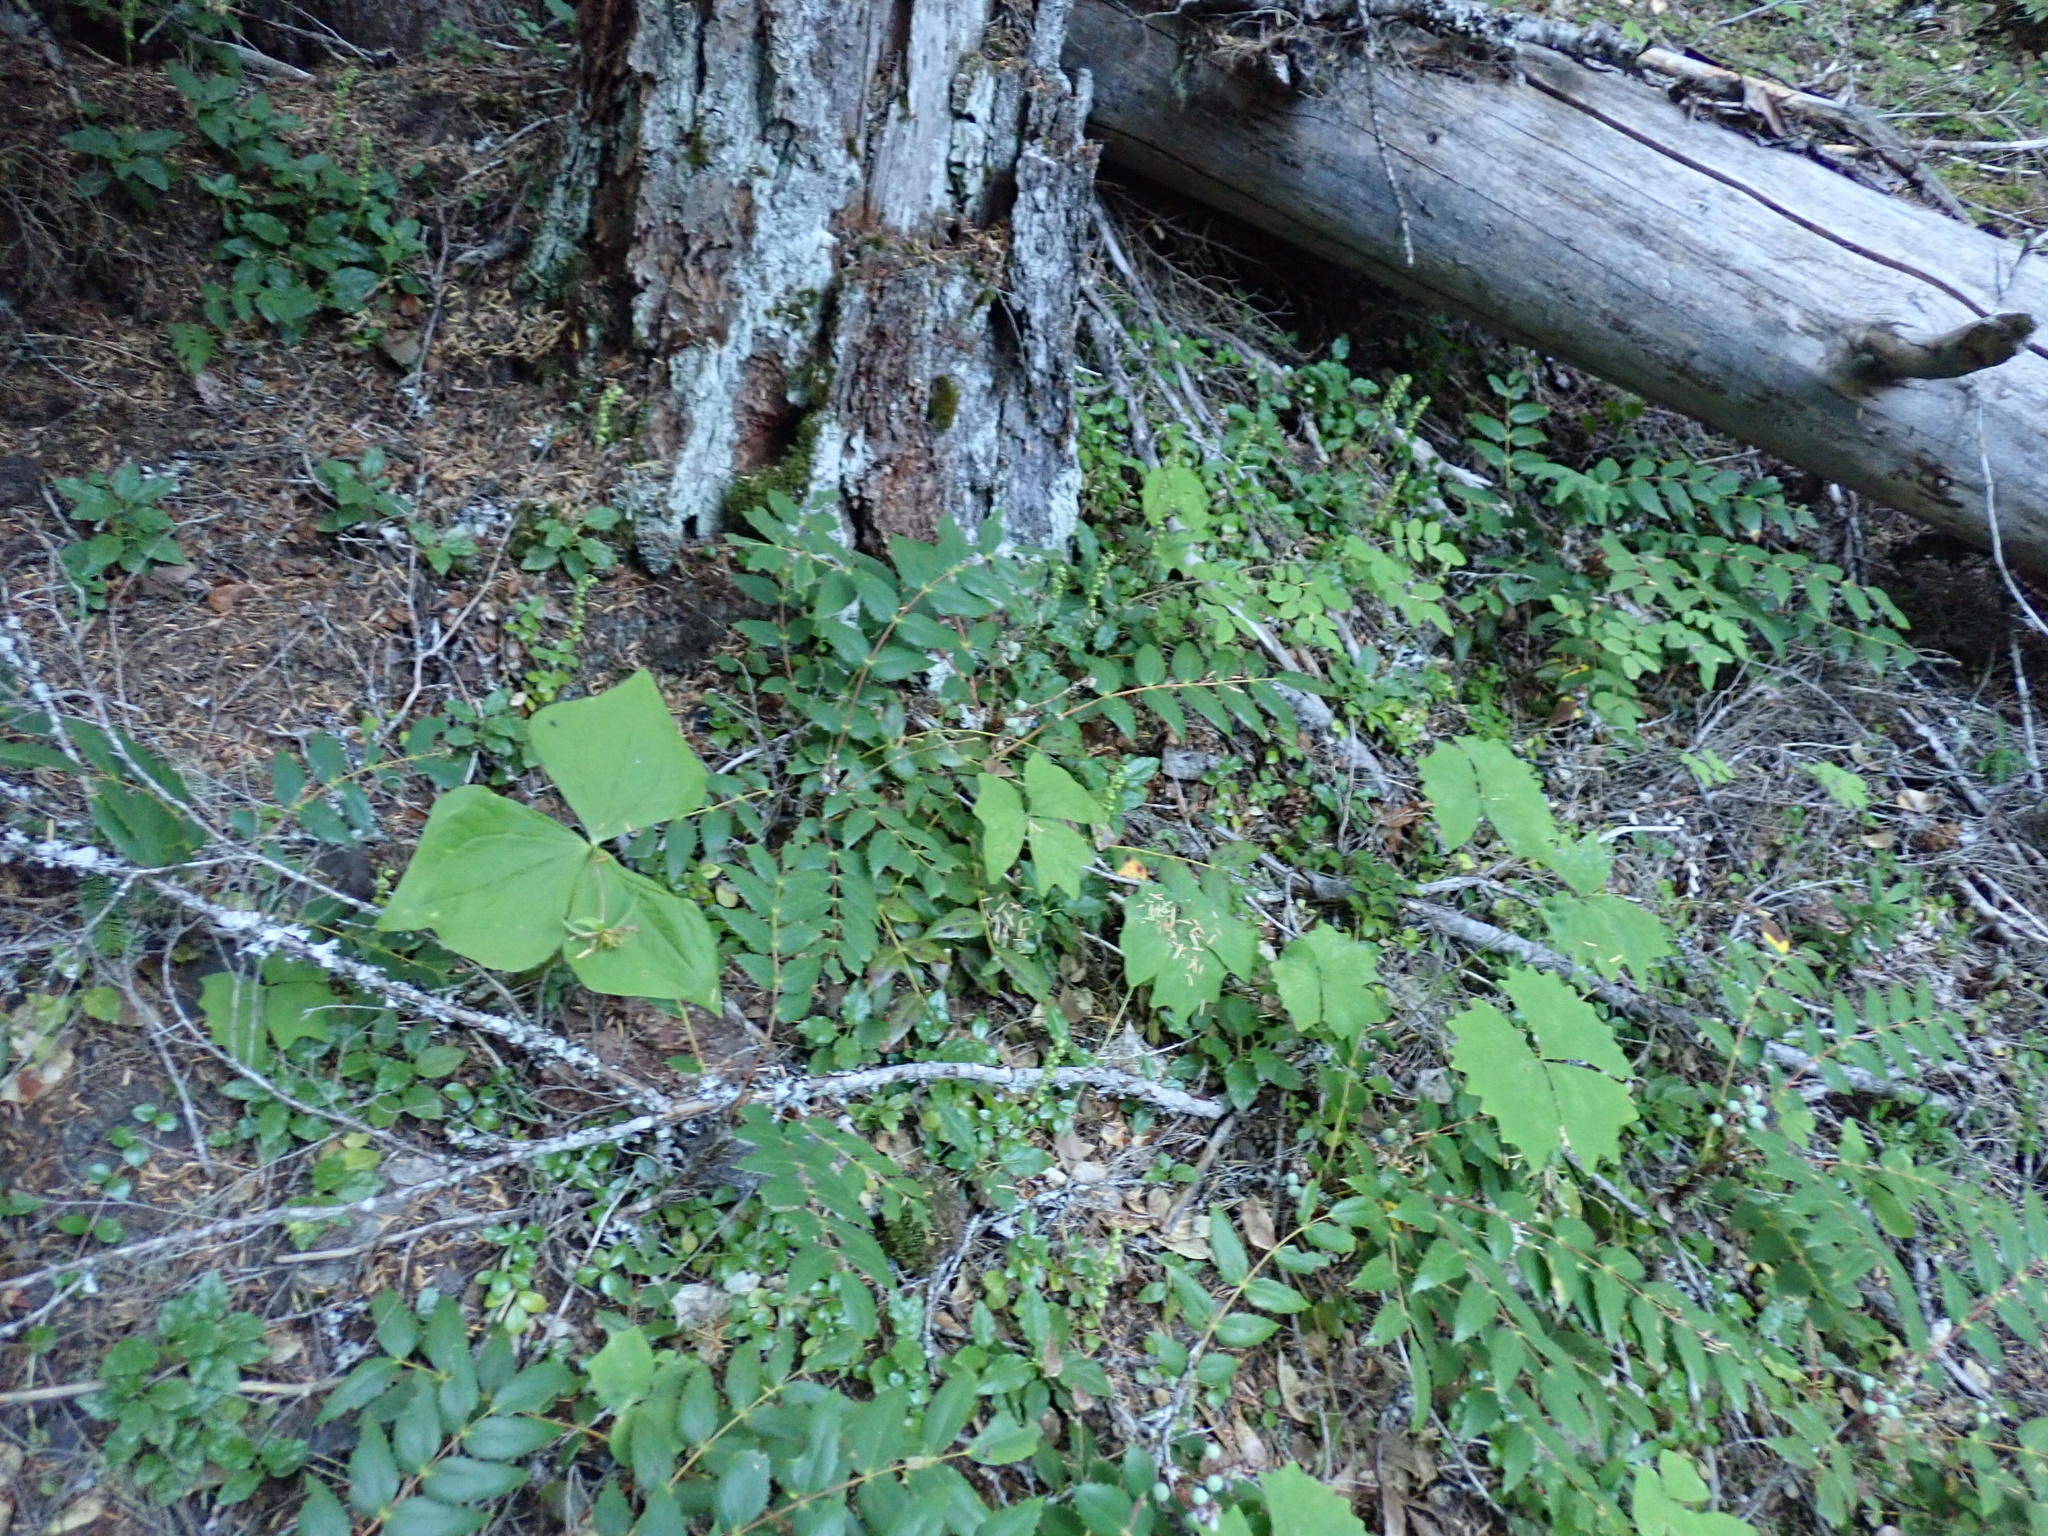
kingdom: Plantae
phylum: Tracheophyta
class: Liliopsida
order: Liliales
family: Melanthiaceae
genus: Trillium
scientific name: Trillium ovatum
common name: Pacific trillium
